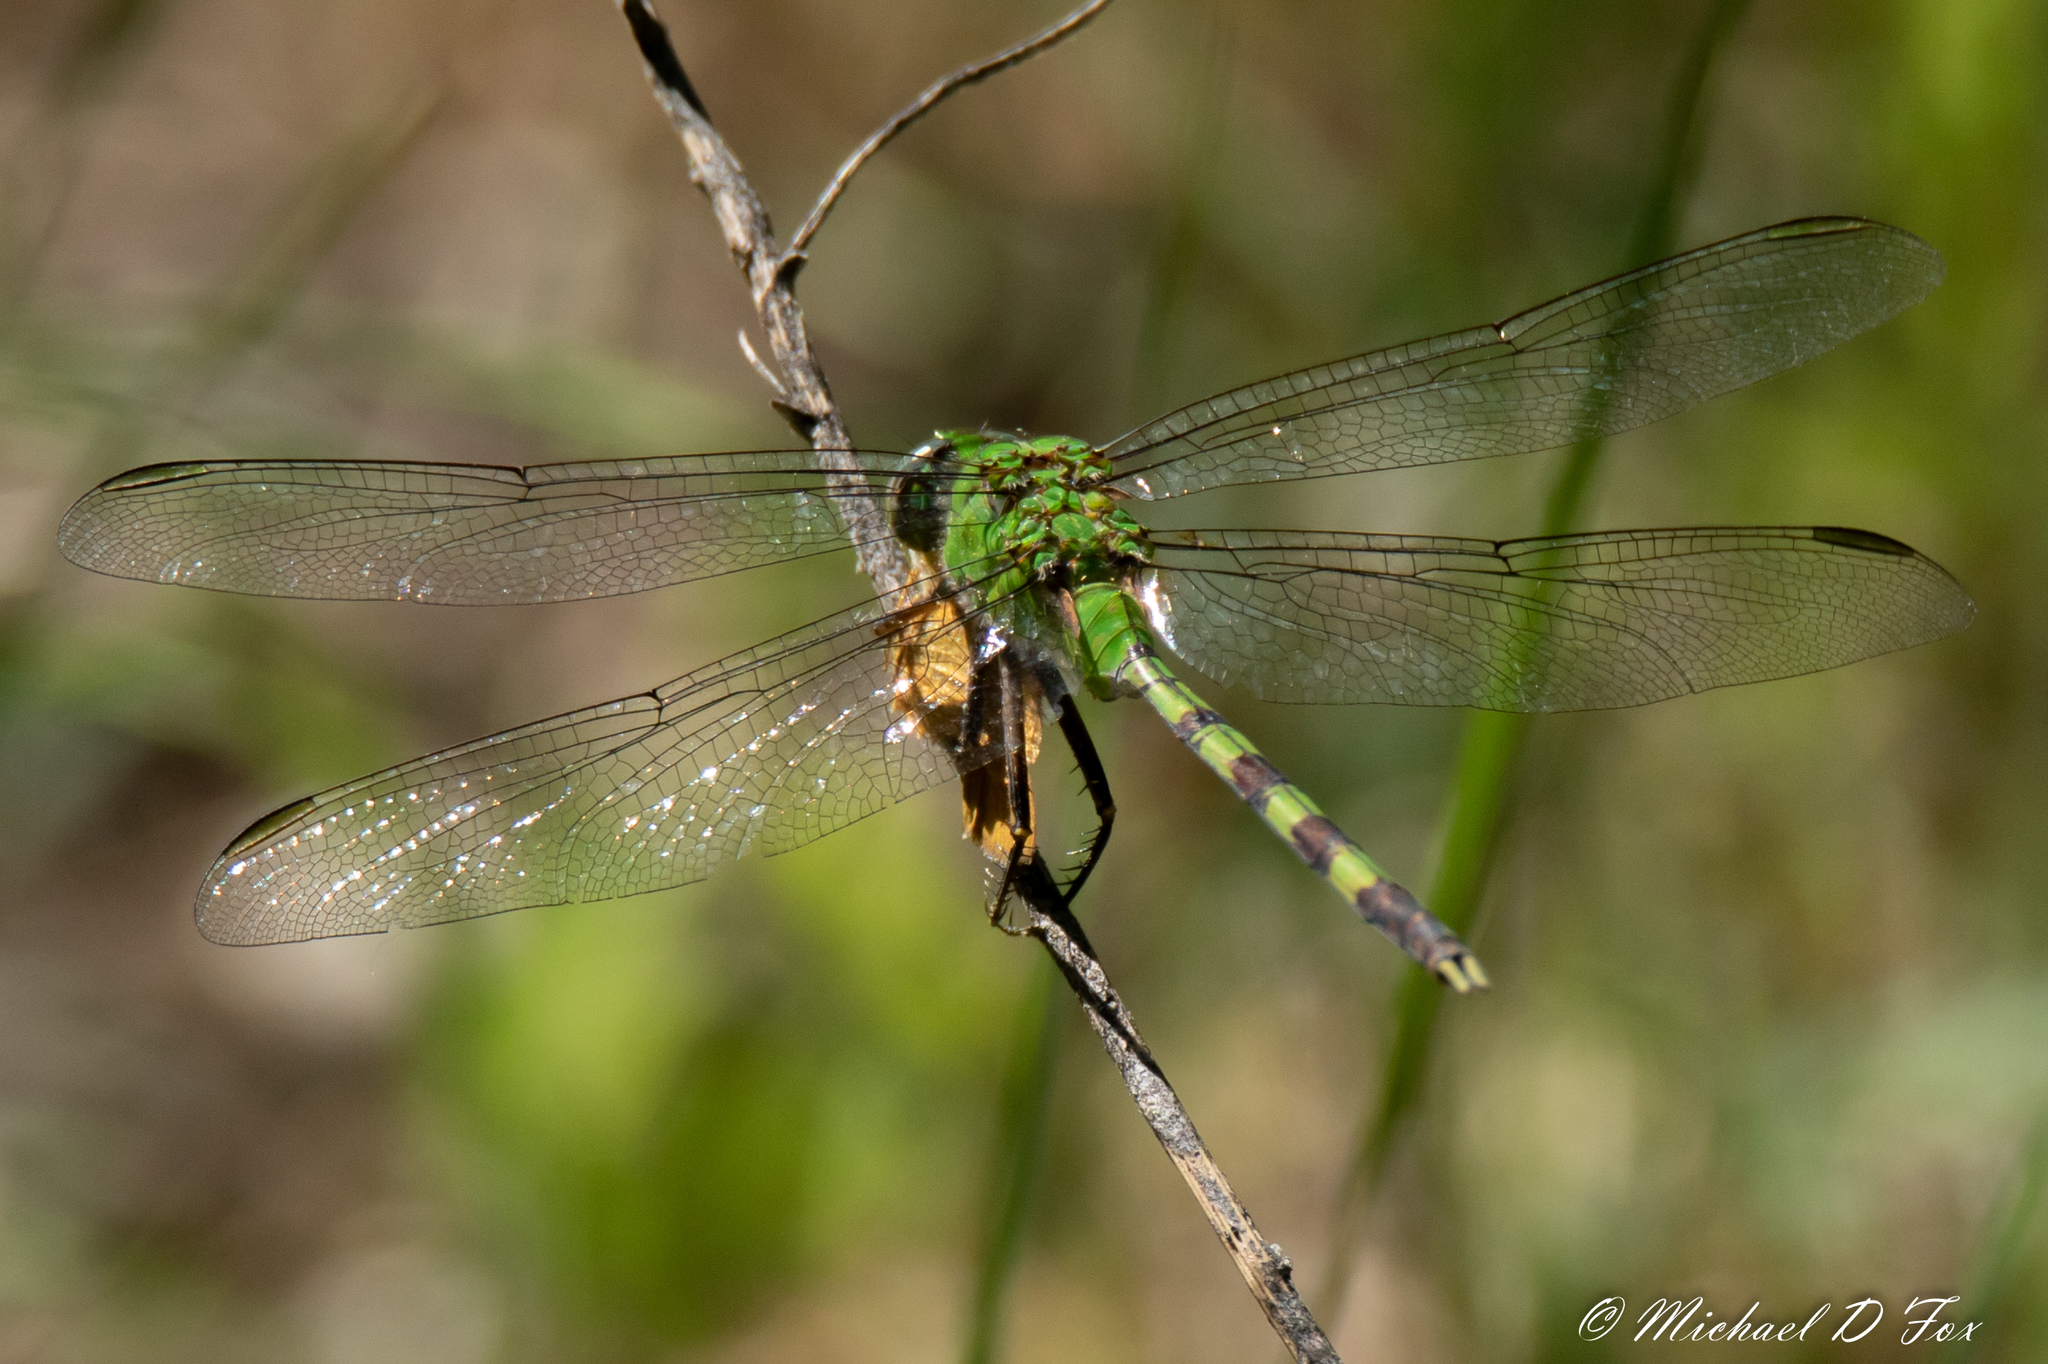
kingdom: Animalia
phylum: Arthropoda
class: Insecta
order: Odonata
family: Libellulidae
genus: Erythemis
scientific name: Erythemis vesiculosa
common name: Great pondhawk
